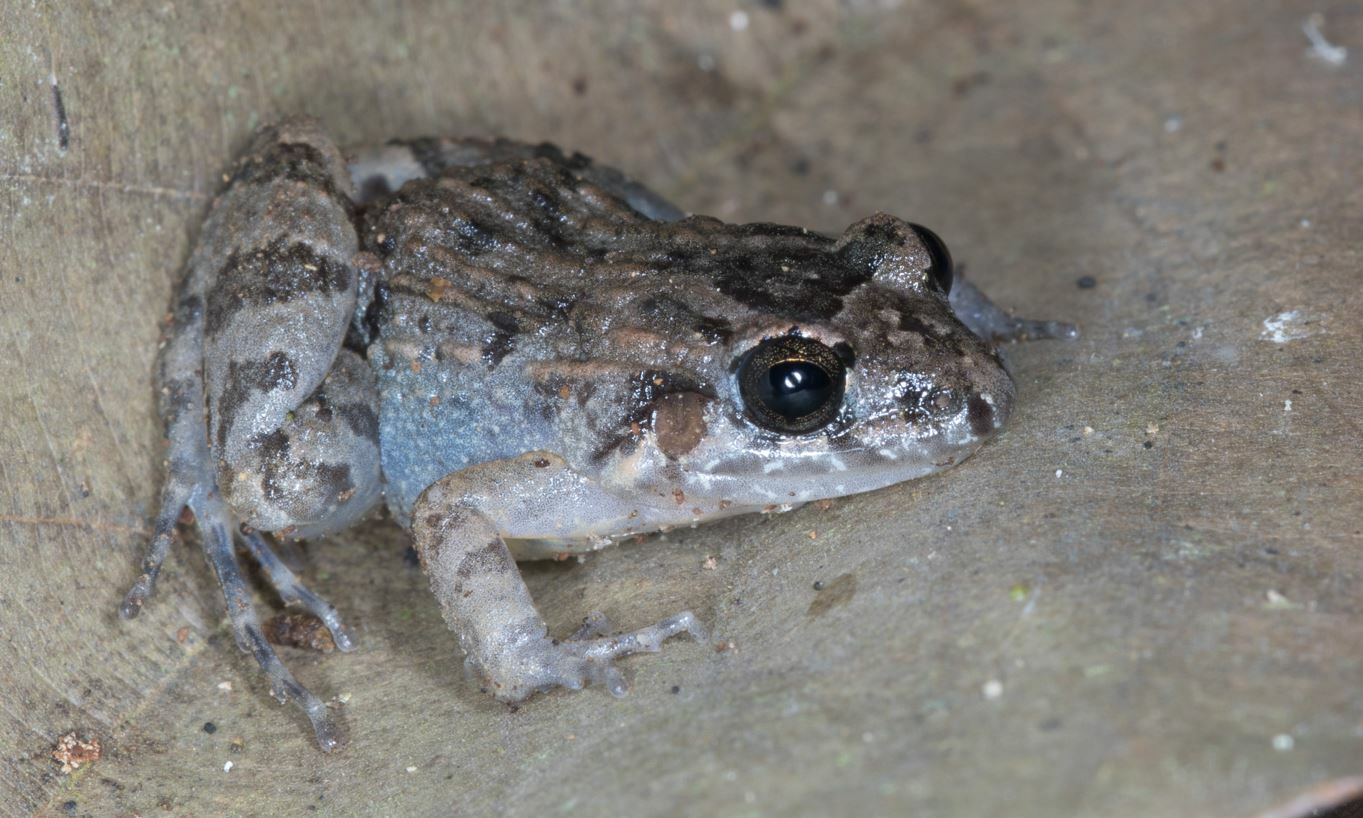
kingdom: Animalia
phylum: Chordata
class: Amphibia
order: Anura
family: Leptodactylidae
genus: Adenomera
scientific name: Adenomera hylaedactyla
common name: Napo tropical bullfrog
